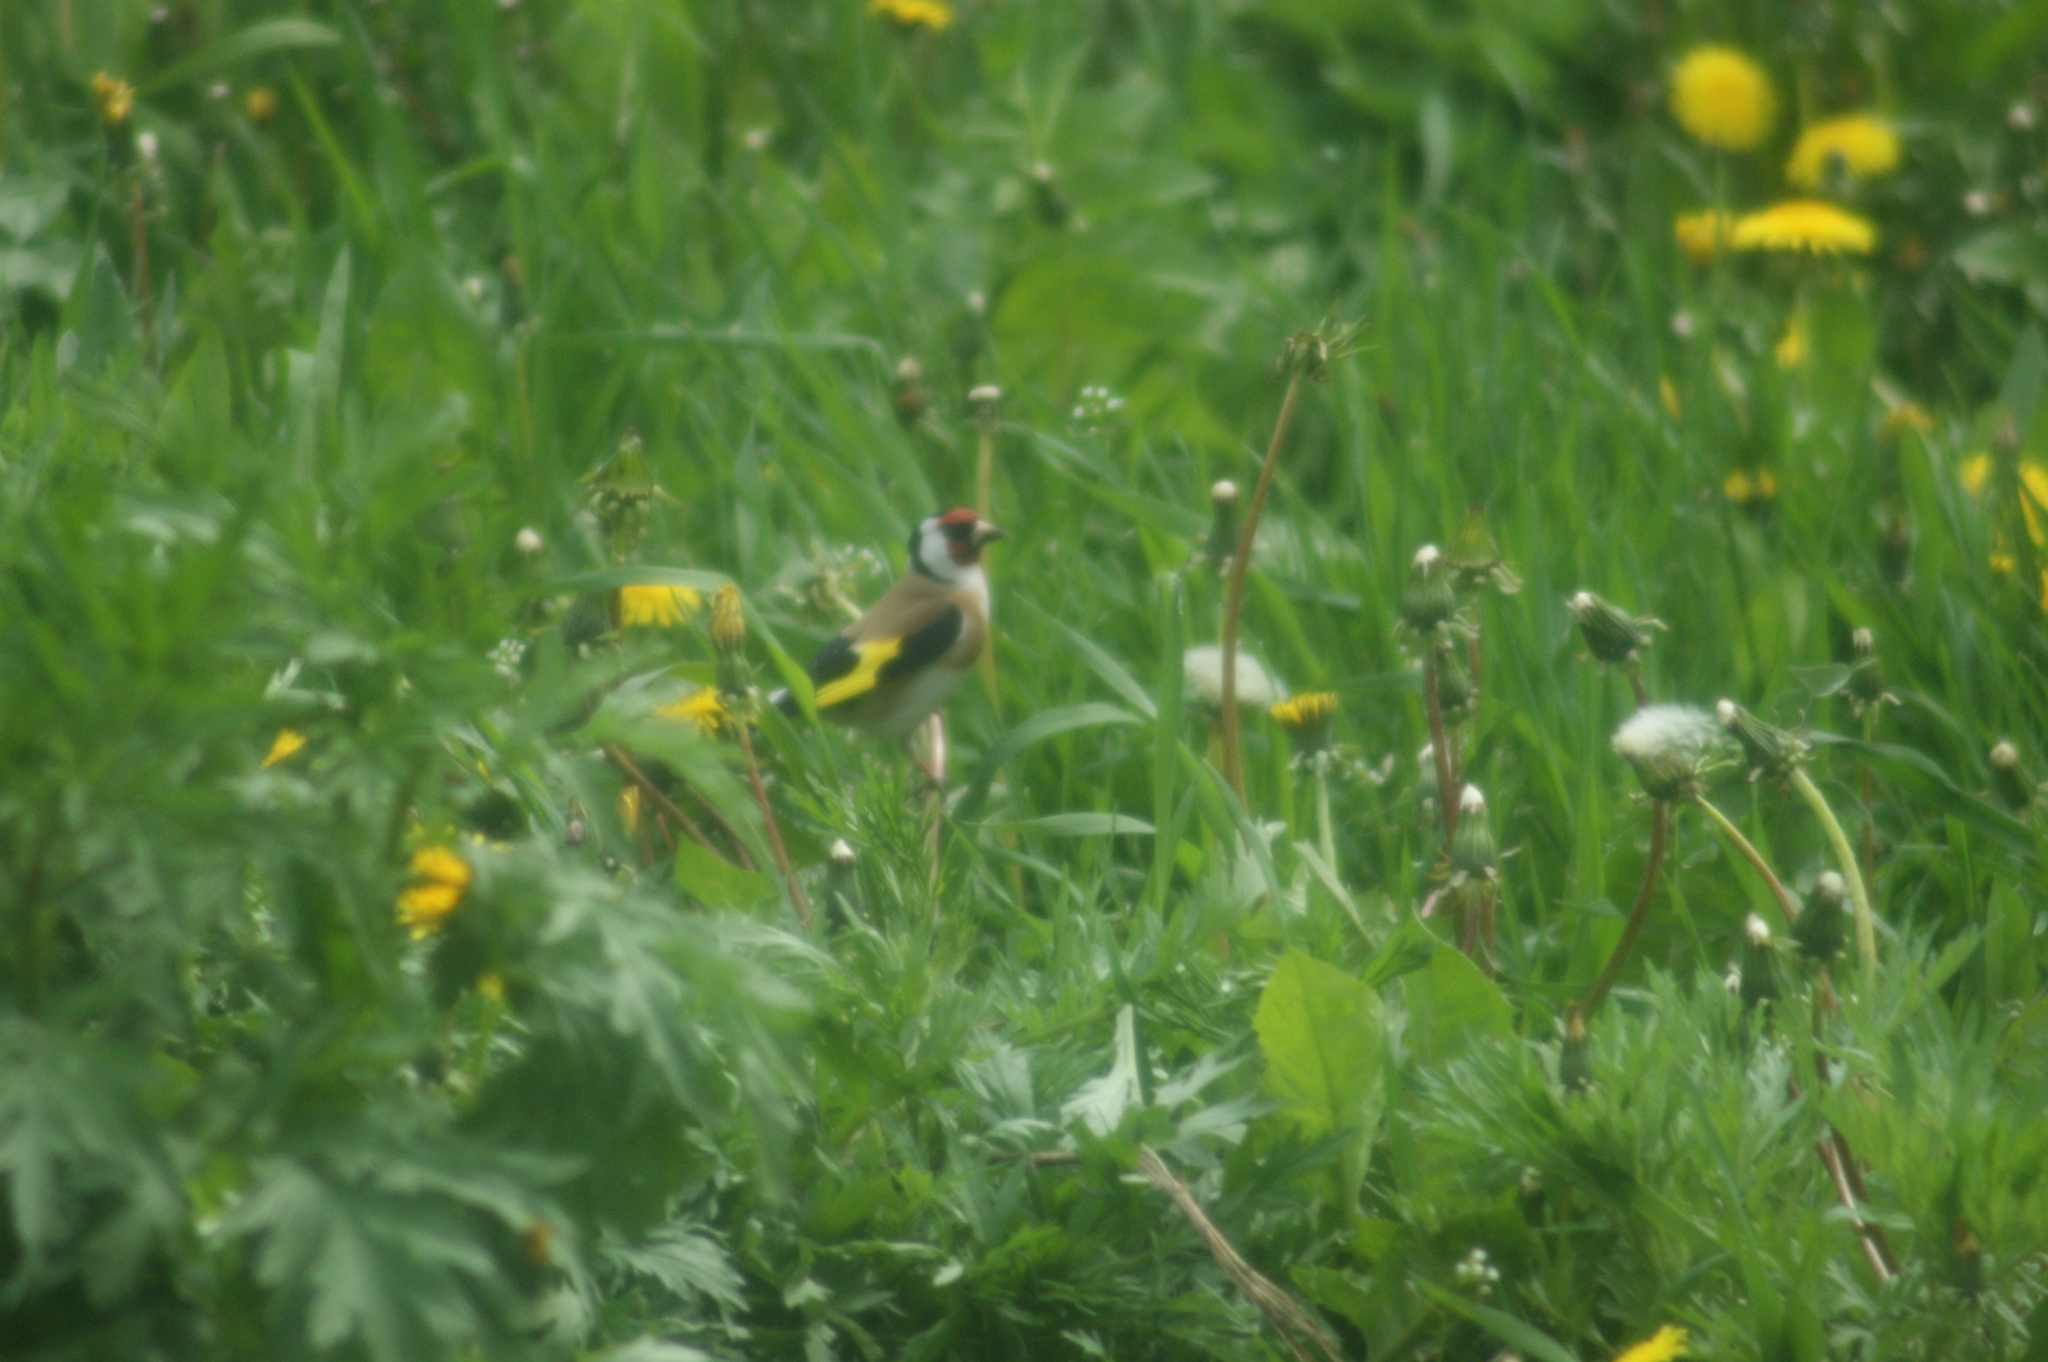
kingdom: Animalia
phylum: Chordata
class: Aves
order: Passeriformes
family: Fringillidae
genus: Carduelis
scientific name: Carduelis carduelis
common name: European goldfinch
